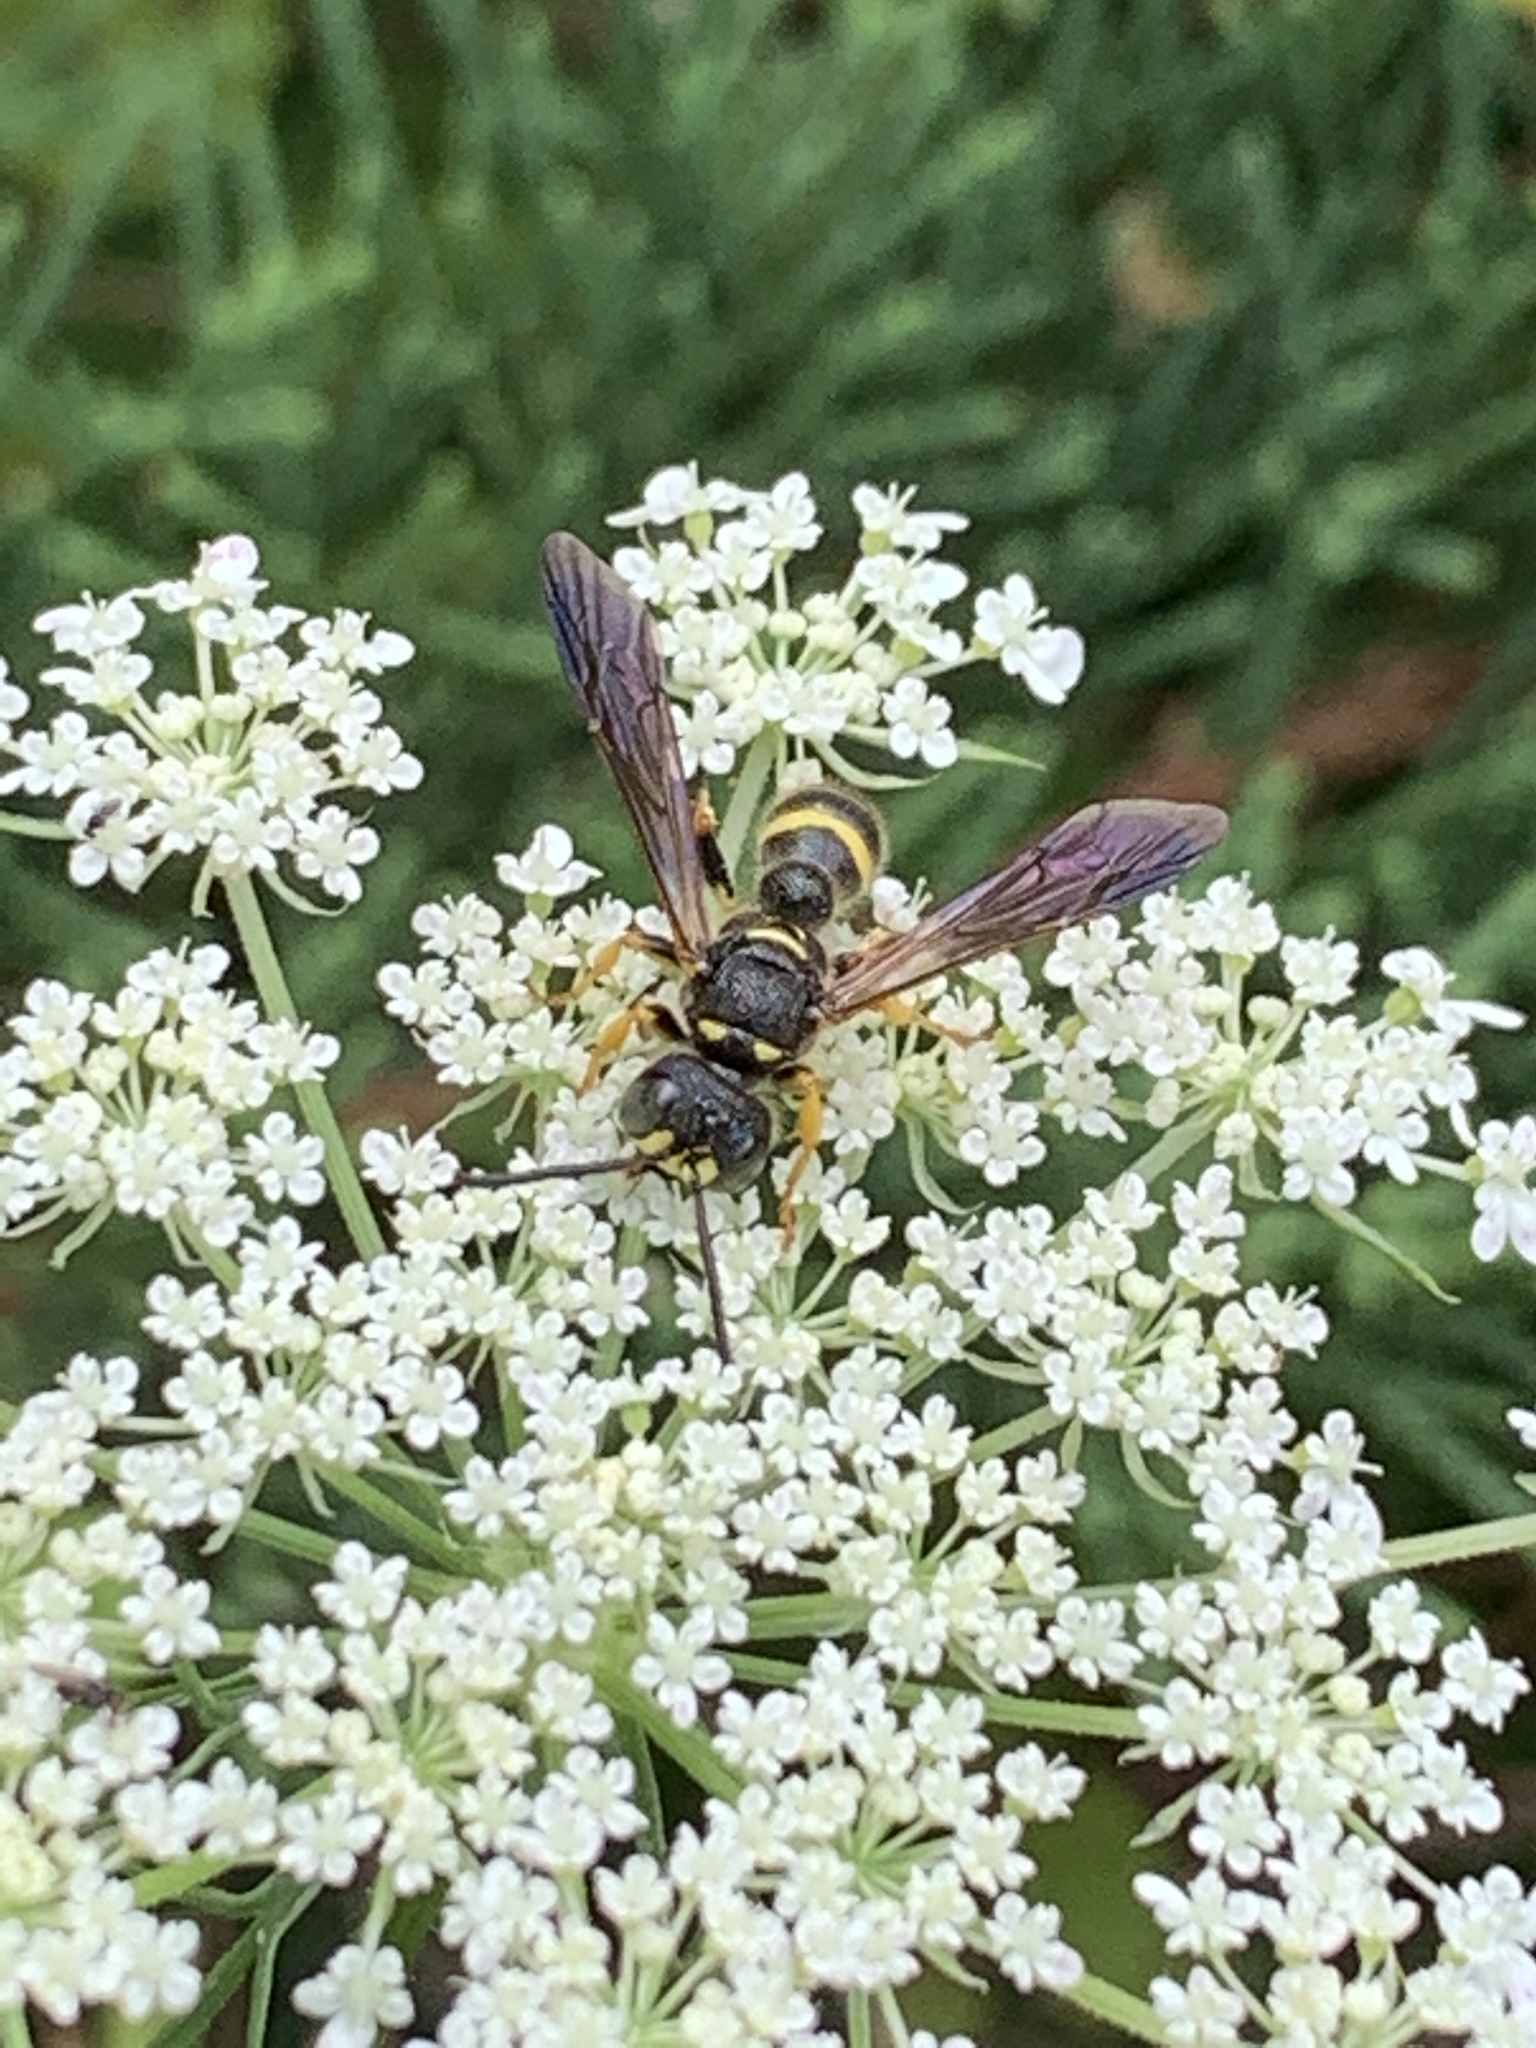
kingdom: Animalia
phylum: Arthropoda
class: Insecta
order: Hymenoptera
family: Crabronidae
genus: Cerceris
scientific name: Cerceris
